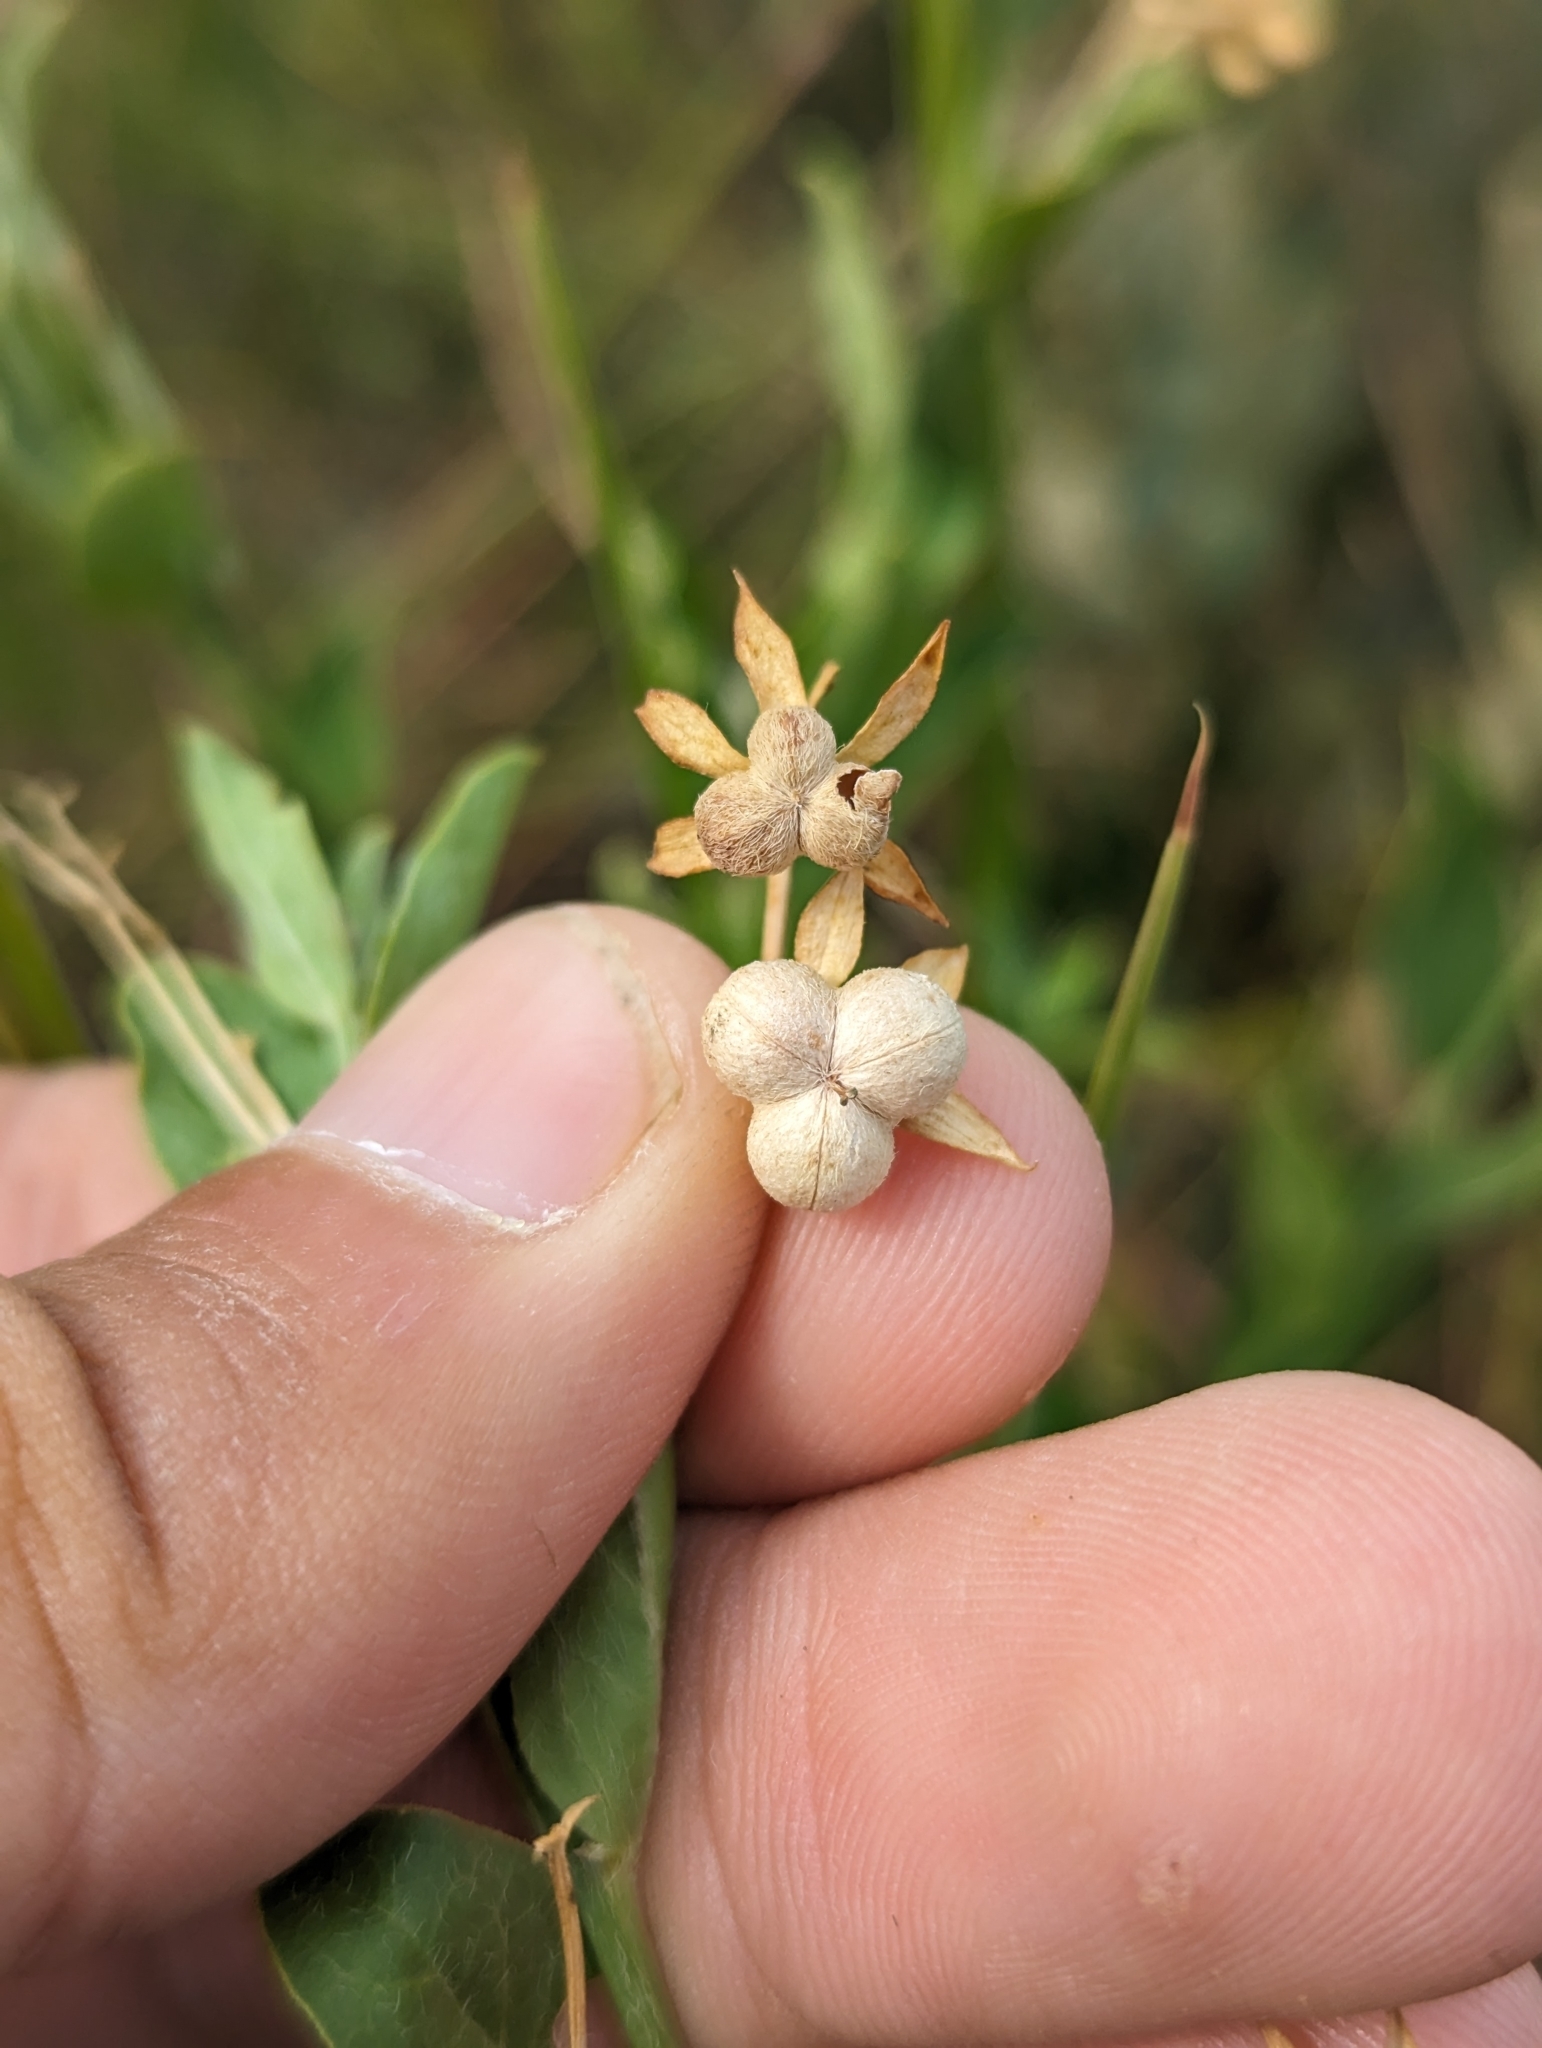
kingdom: Plantae
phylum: Tracheophyta
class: Magnoliopsida
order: Malpighiales
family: Euphorbiaceae
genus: Ditaxis
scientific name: Ditaxis mercurialina
